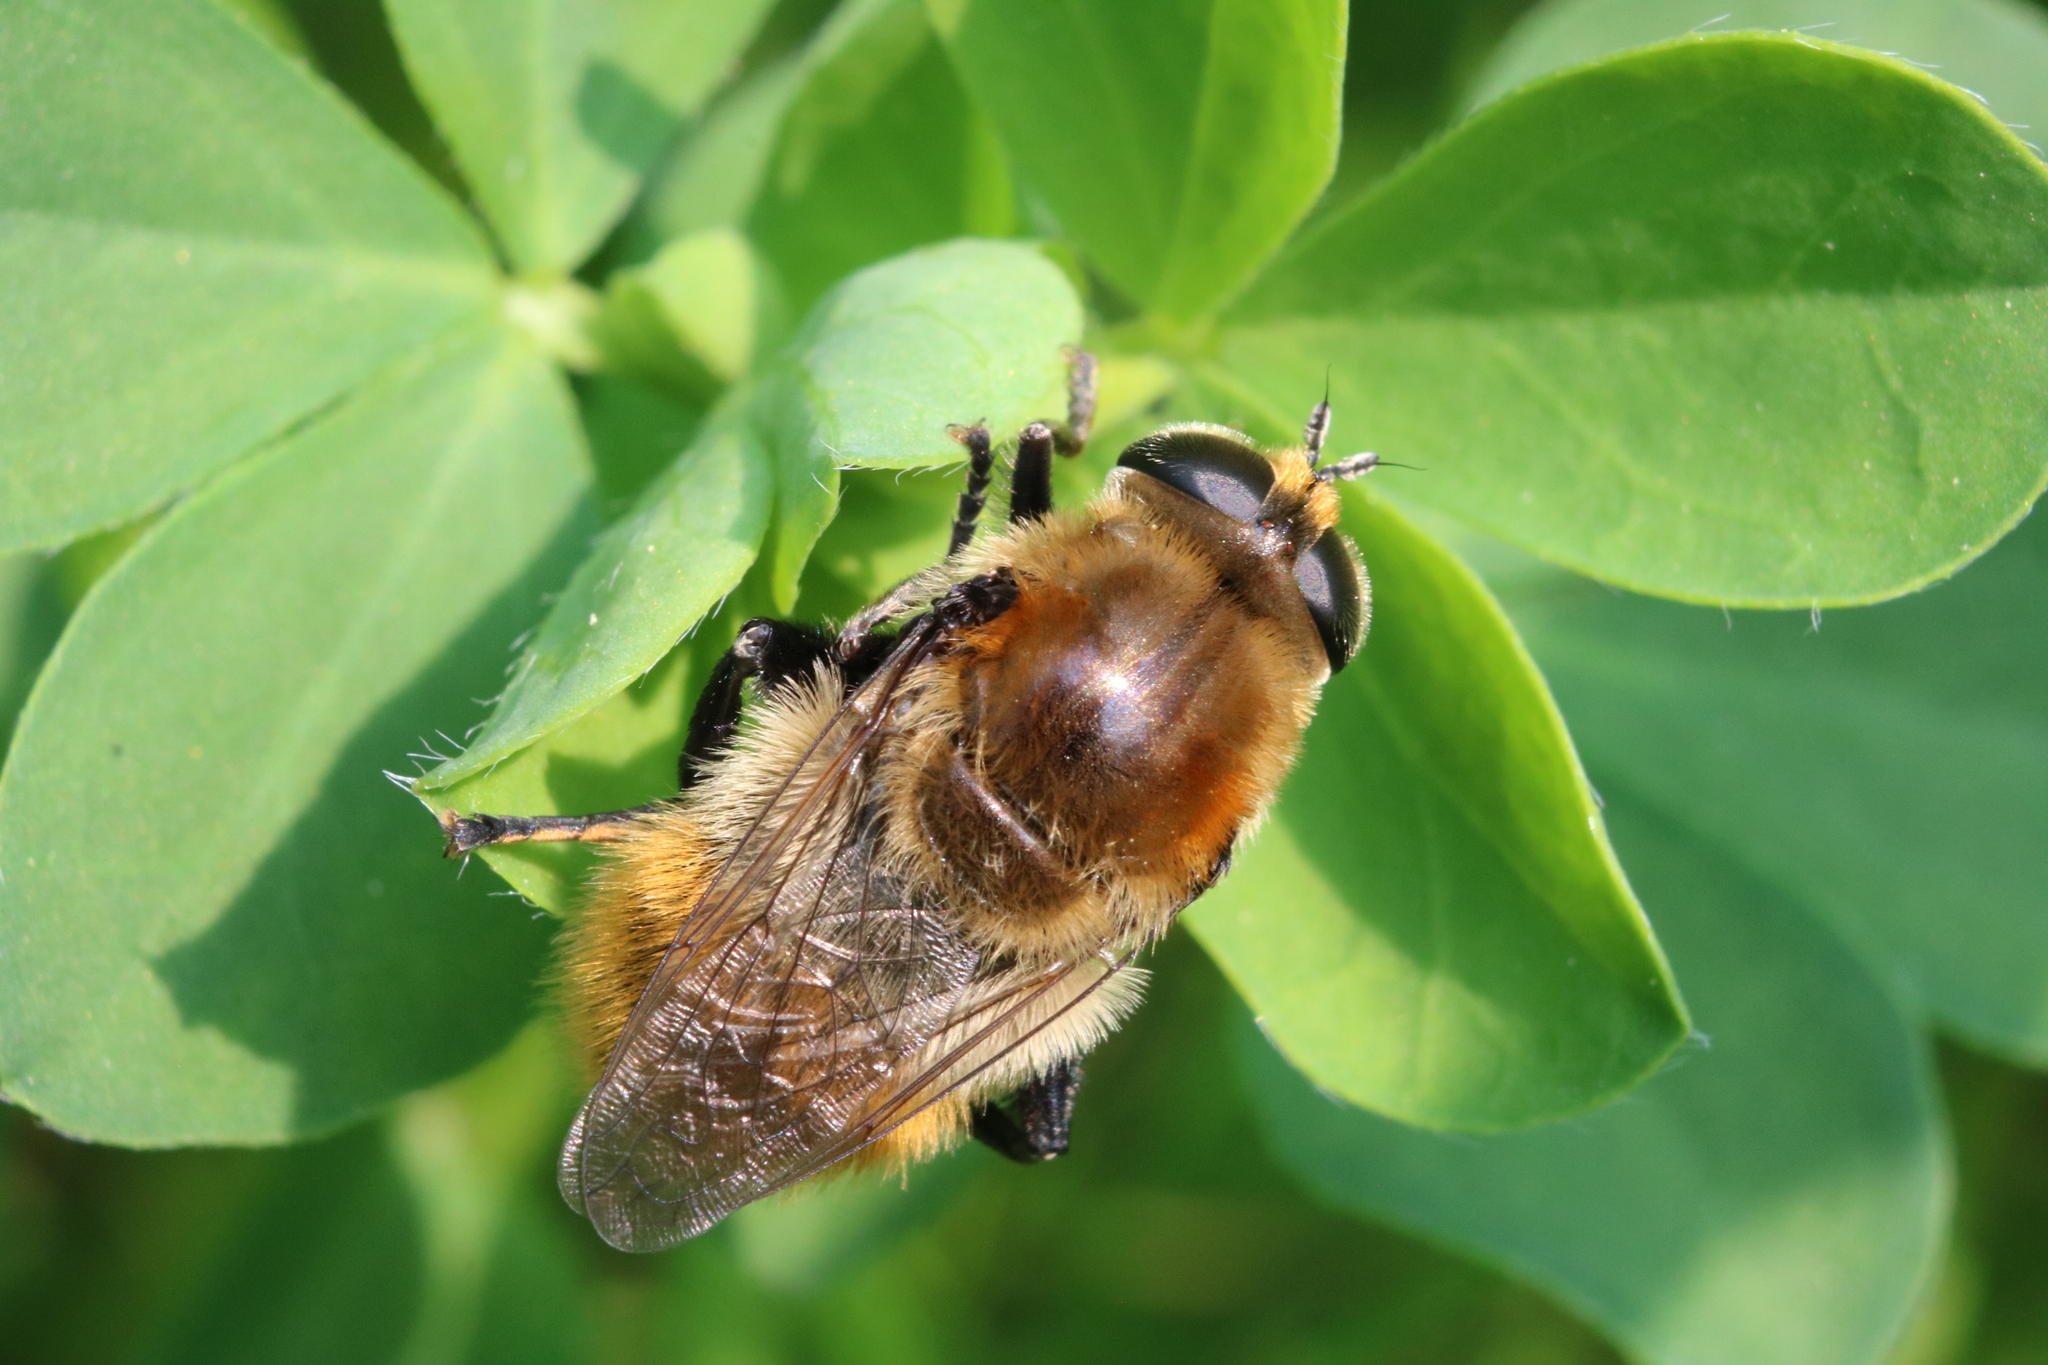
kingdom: Animalia
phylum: Arthropoda
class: Insecta
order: Diptera
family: Syrphidae
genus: Merodon
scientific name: Merodon equestris
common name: Greater bulb-fly
